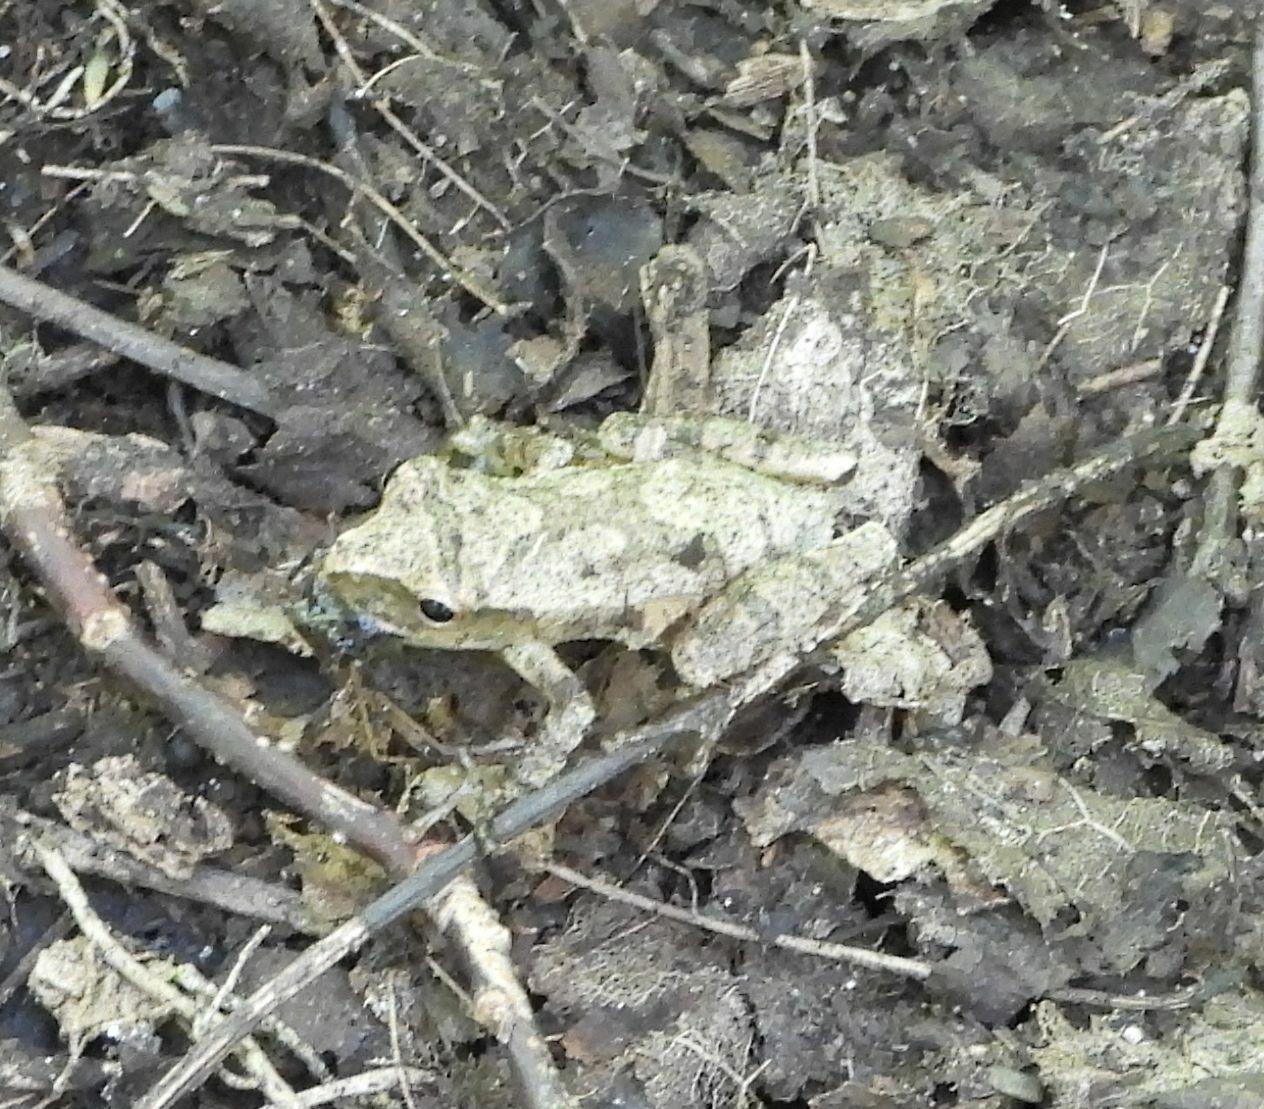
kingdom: Animalia
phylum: Chordata
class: Amphibia
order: Anura
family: Hylidae
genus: Pseudacris
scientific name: Pseudacris crucifer
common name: Spring peeper
